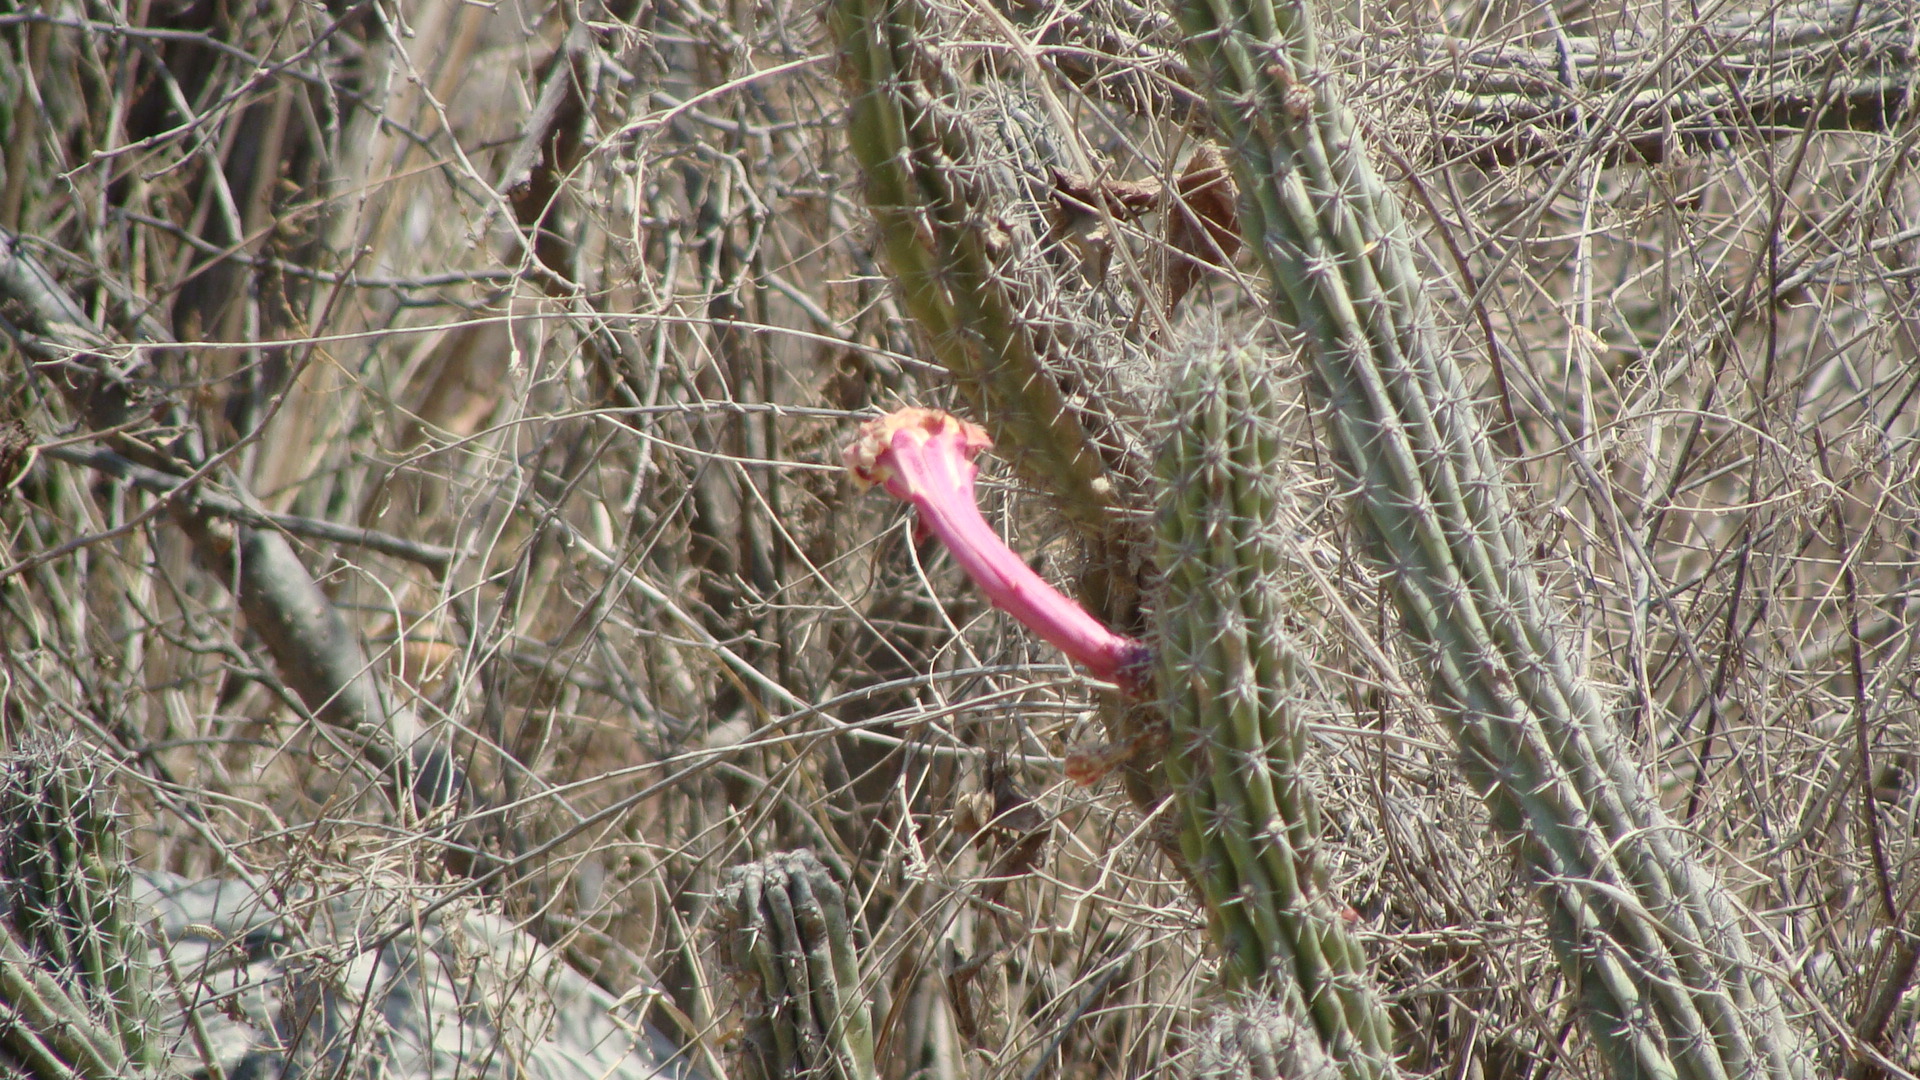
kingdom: Plantae
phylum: Tracheophyta
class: Magnoliopsida
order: Caryophyllales
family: Cactaceae
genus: Stenocereus
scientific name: Stenocereus gummosus
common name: Dagger cactus
